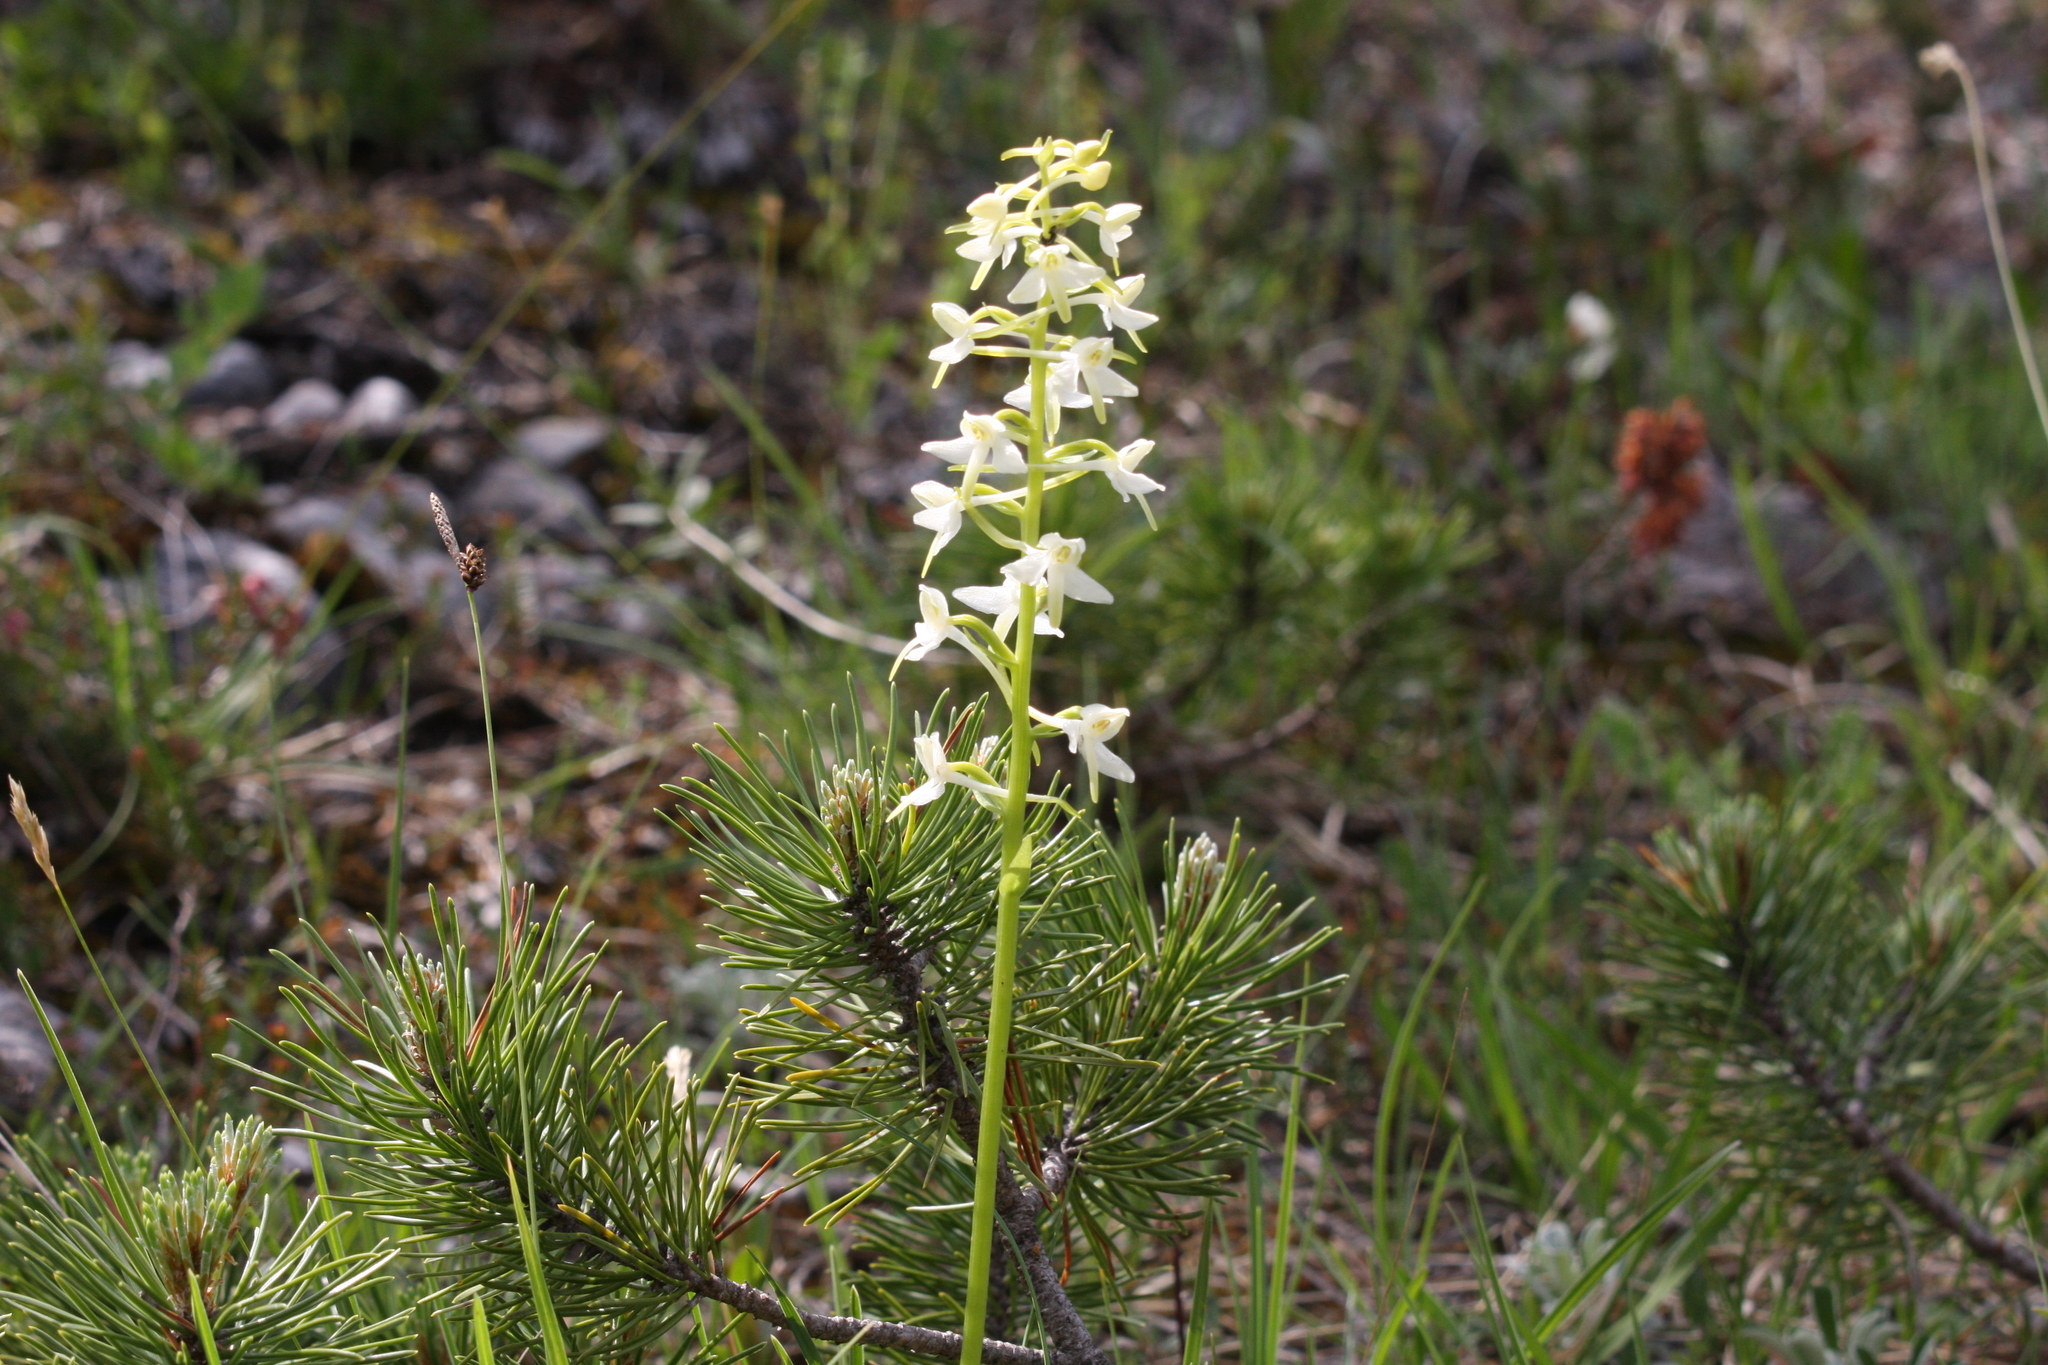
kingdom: Plantae
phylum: Tracheophyta
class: Liliopsida
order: Asparagales
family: Orchidaceae
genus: Platanthera
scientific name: Platanthera bifolia
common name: Lesser butterfly-orchid
